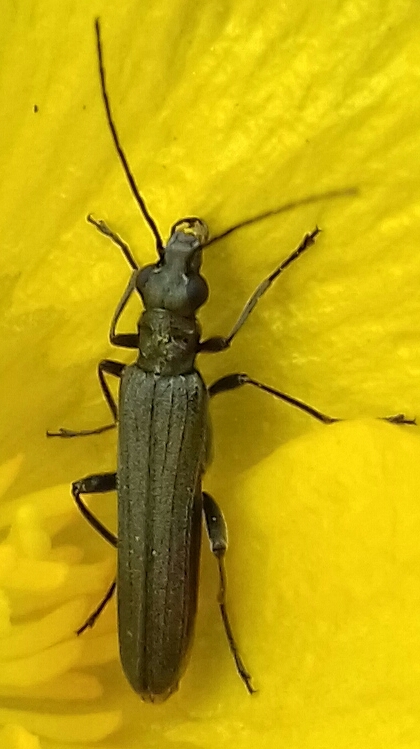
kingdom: Animalia
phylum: Arthropoda
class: Insecta
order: Coleoptera
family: Oedemeridae
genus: Oedemera
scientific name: Oedemera lurida
